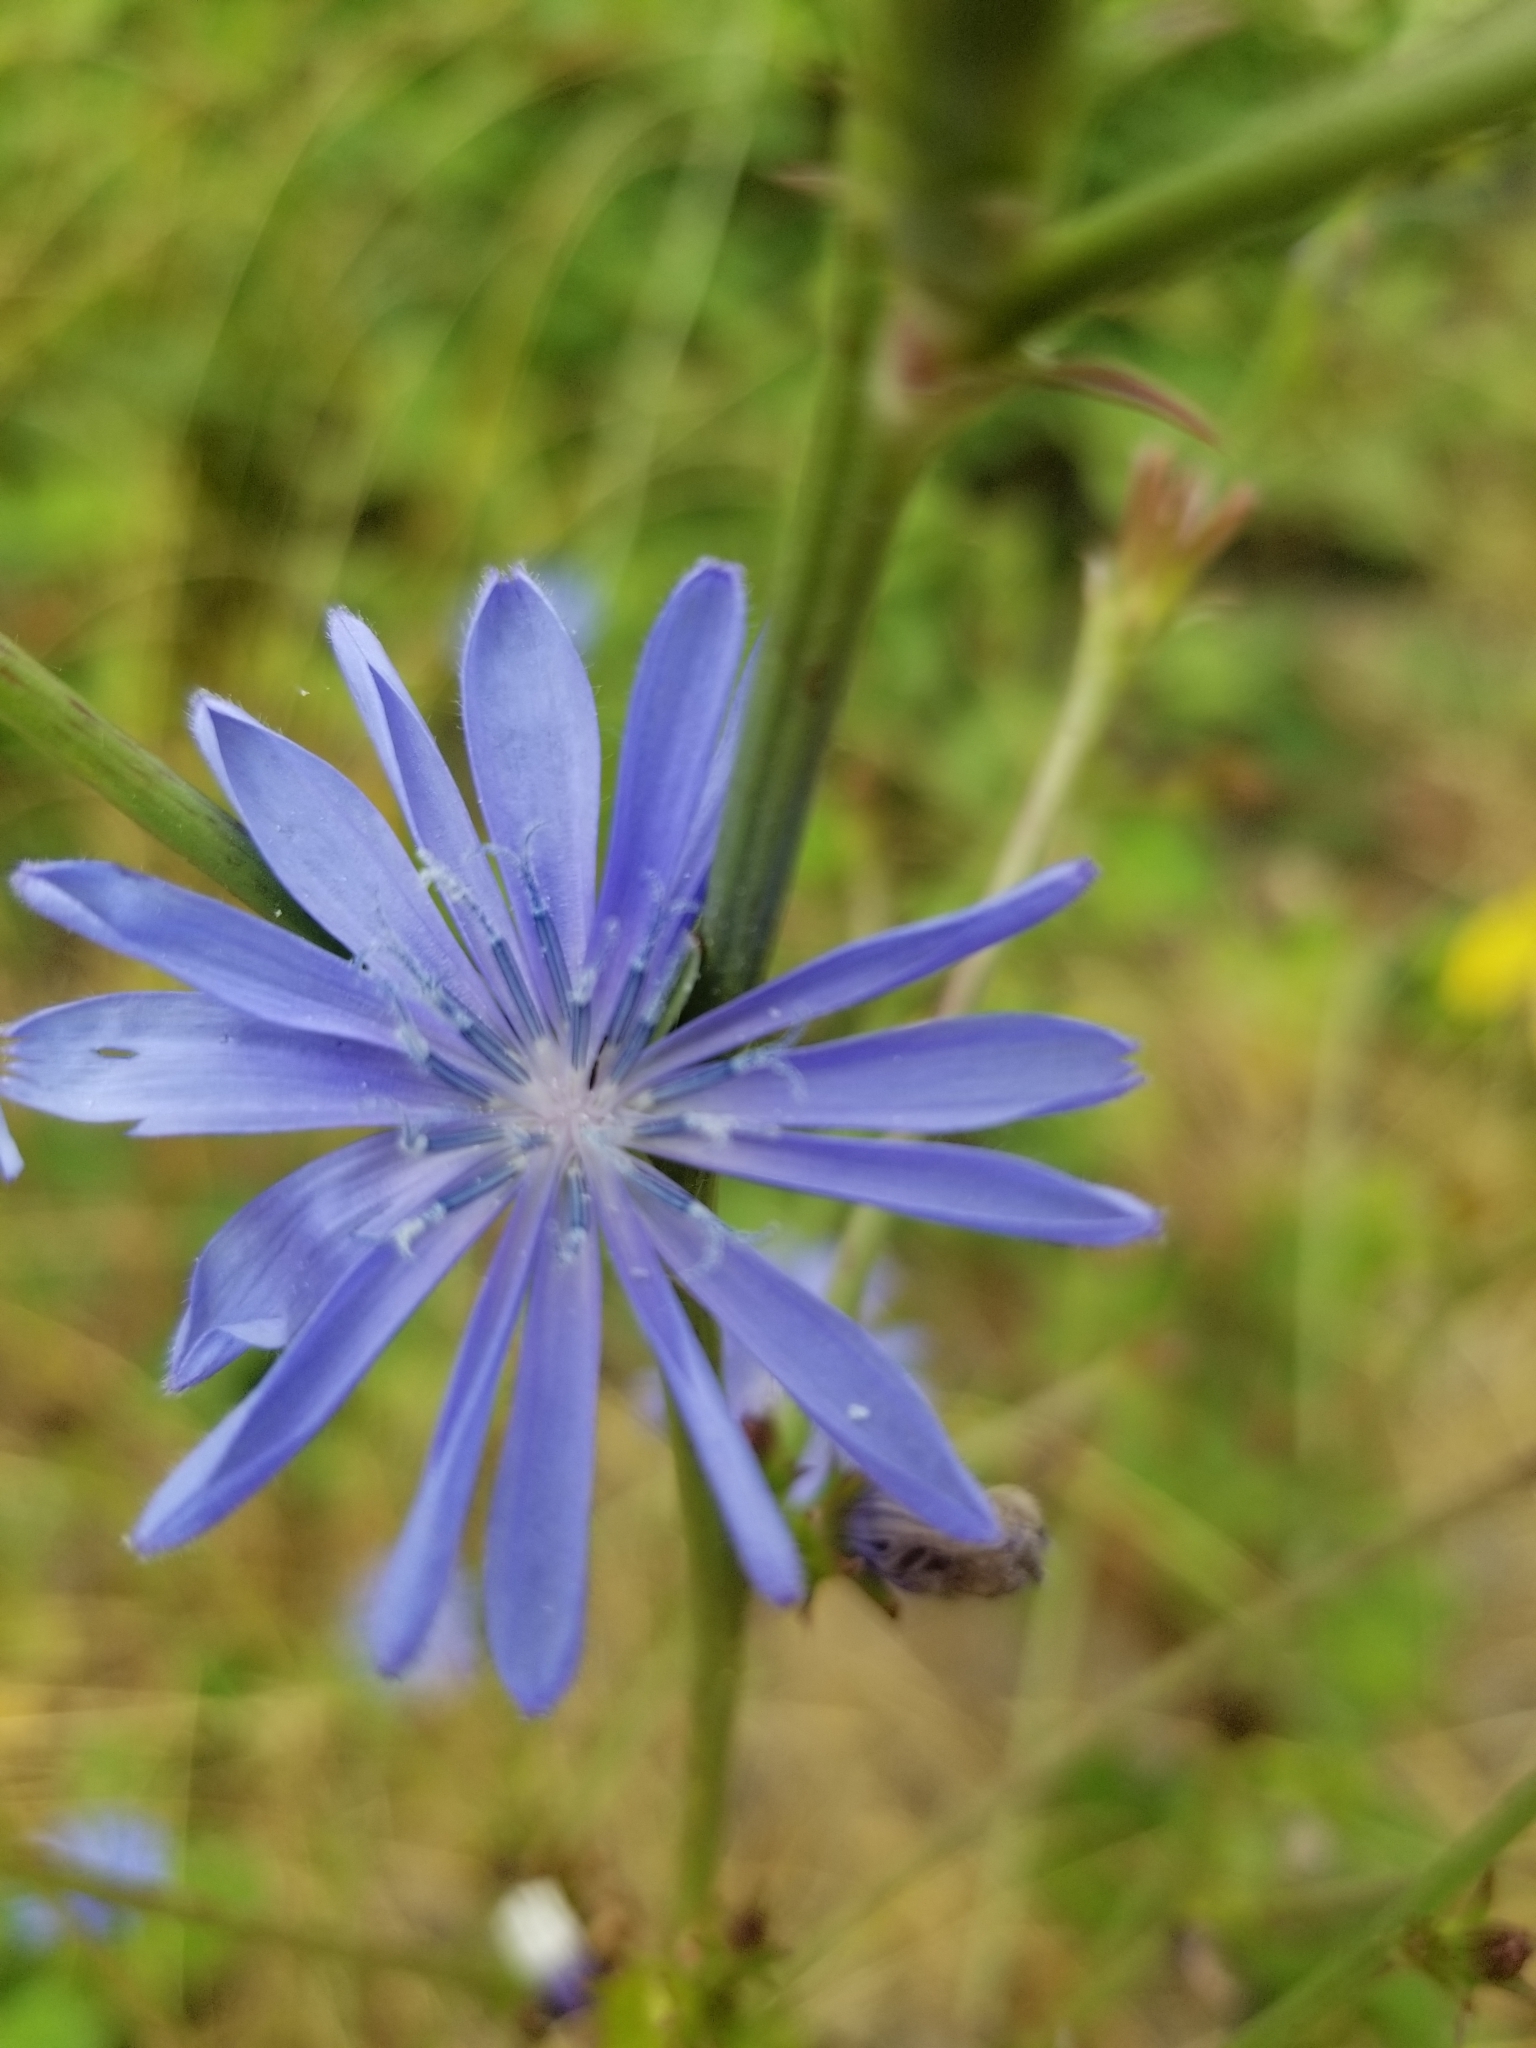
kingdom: Plantae
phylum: Tracheophyta
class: Magnoliopsida
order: Asterales
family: Asteraceae
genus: Cichorium
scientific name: Cichorium intybus
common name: Chicory
